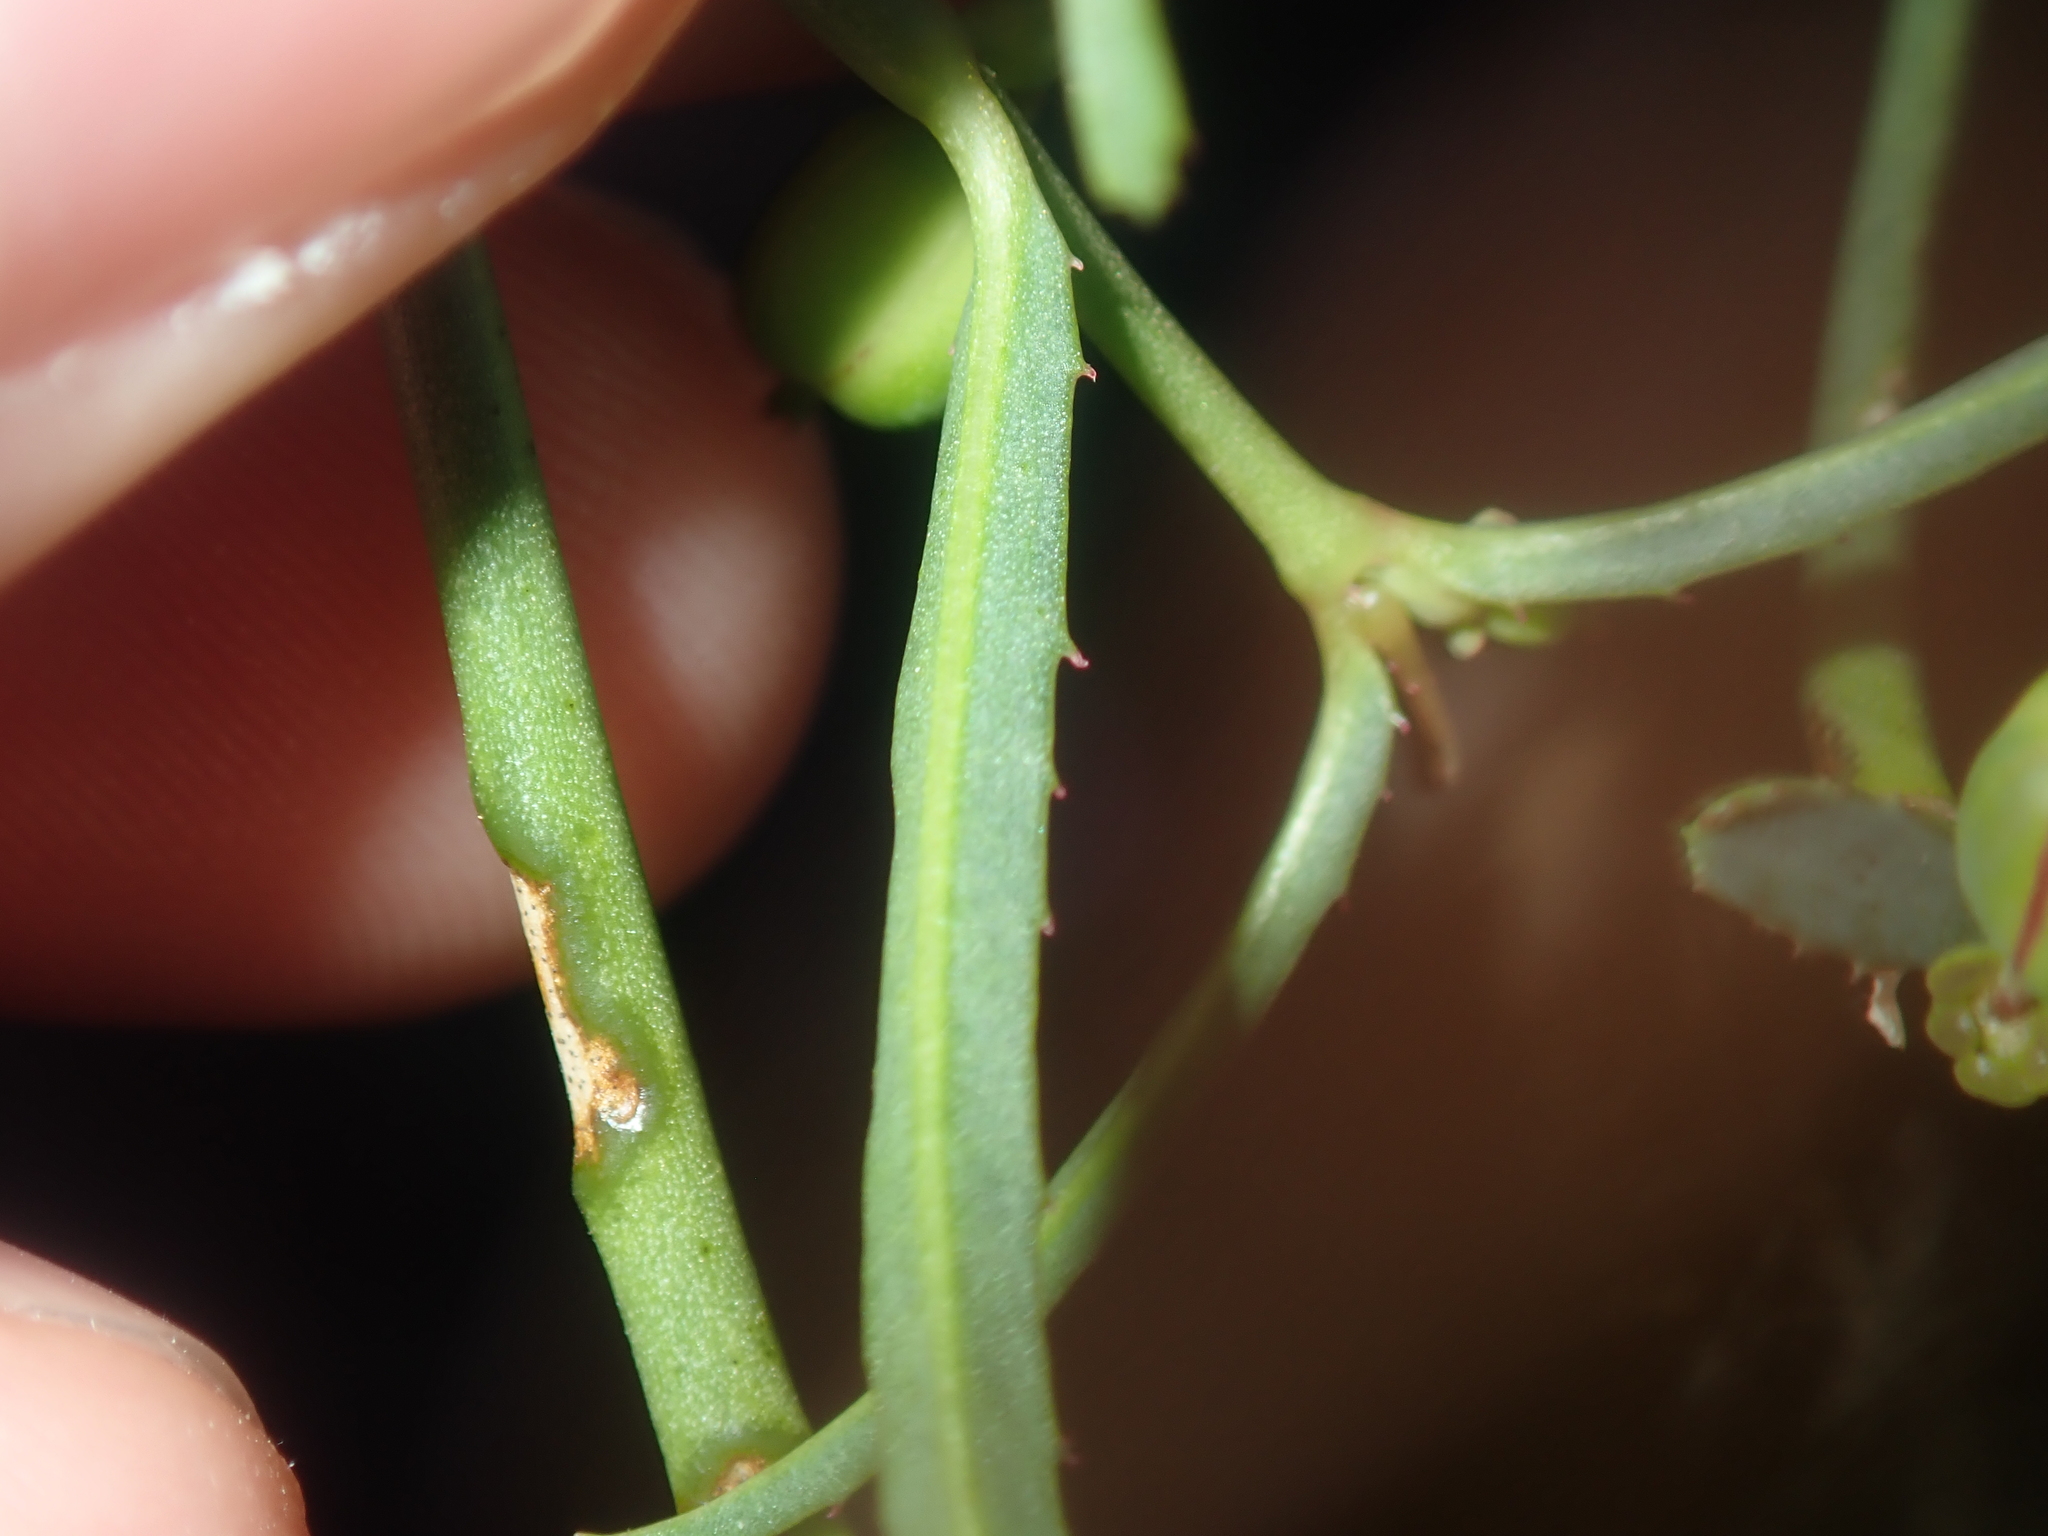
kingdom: Plantae
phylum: Tracheophyta
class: Magnoliopsida
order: Malpighiales
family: Euphorbiaceae
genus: Euphorbia
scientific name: Euphorbia tannensis
